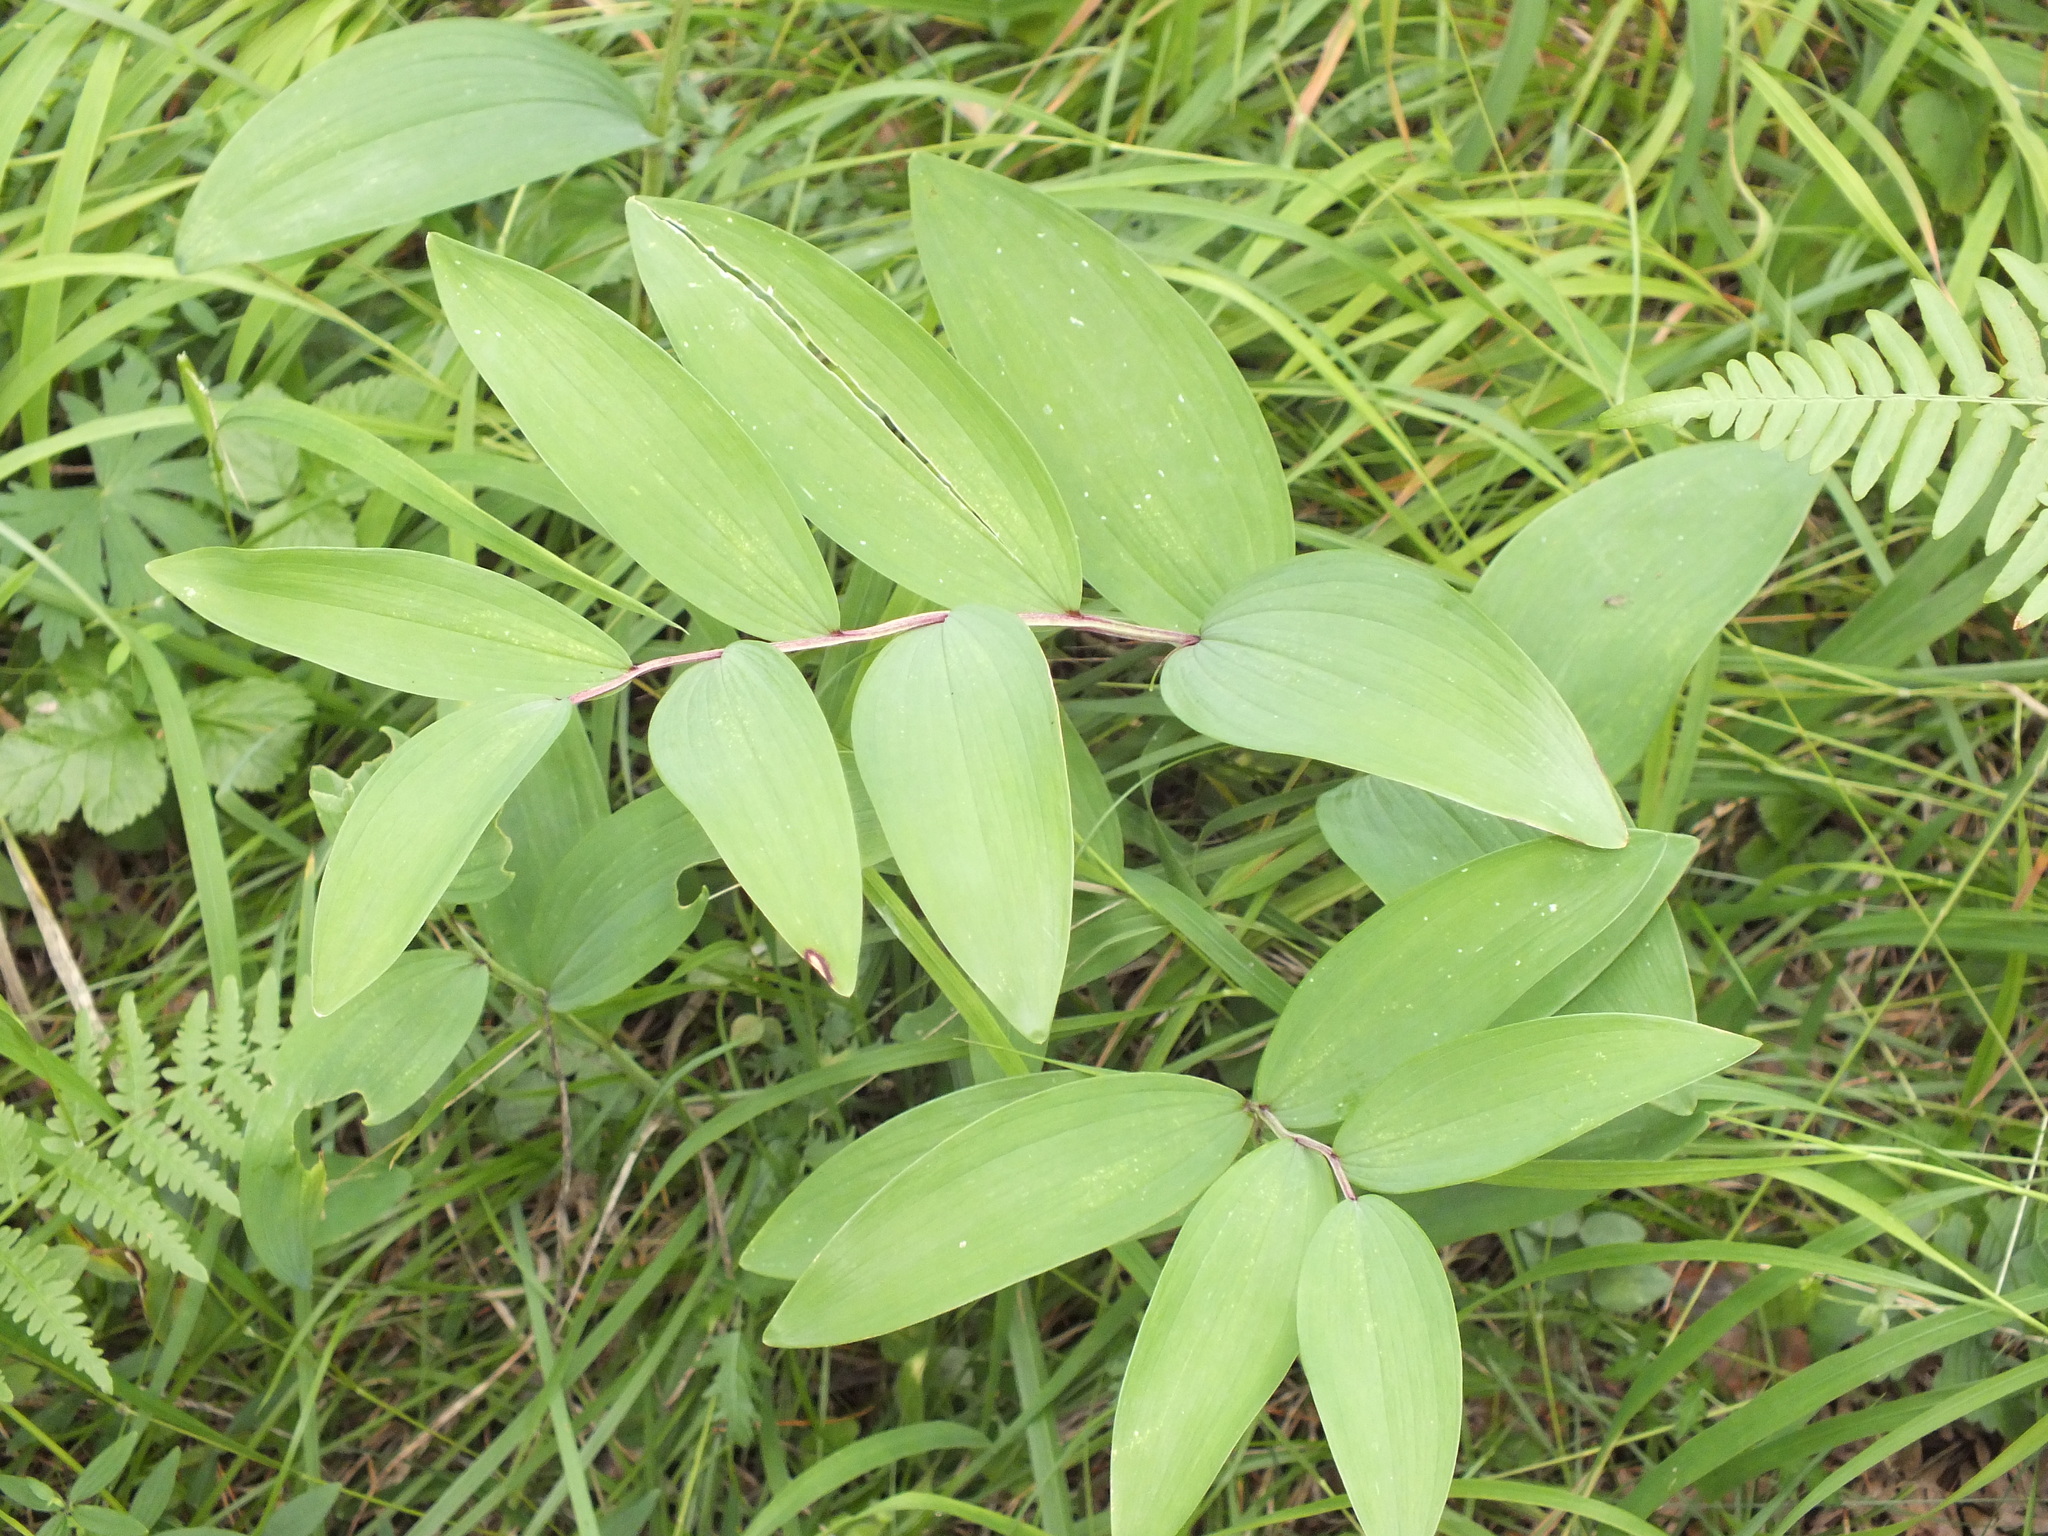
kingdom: Plantae
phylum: Tracheophyta
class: Liliopsida
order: Asparagales
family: Asparagaceae
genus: Polygonatum
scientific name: Polygonatum odoratum
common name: Angular solomon's-seal
